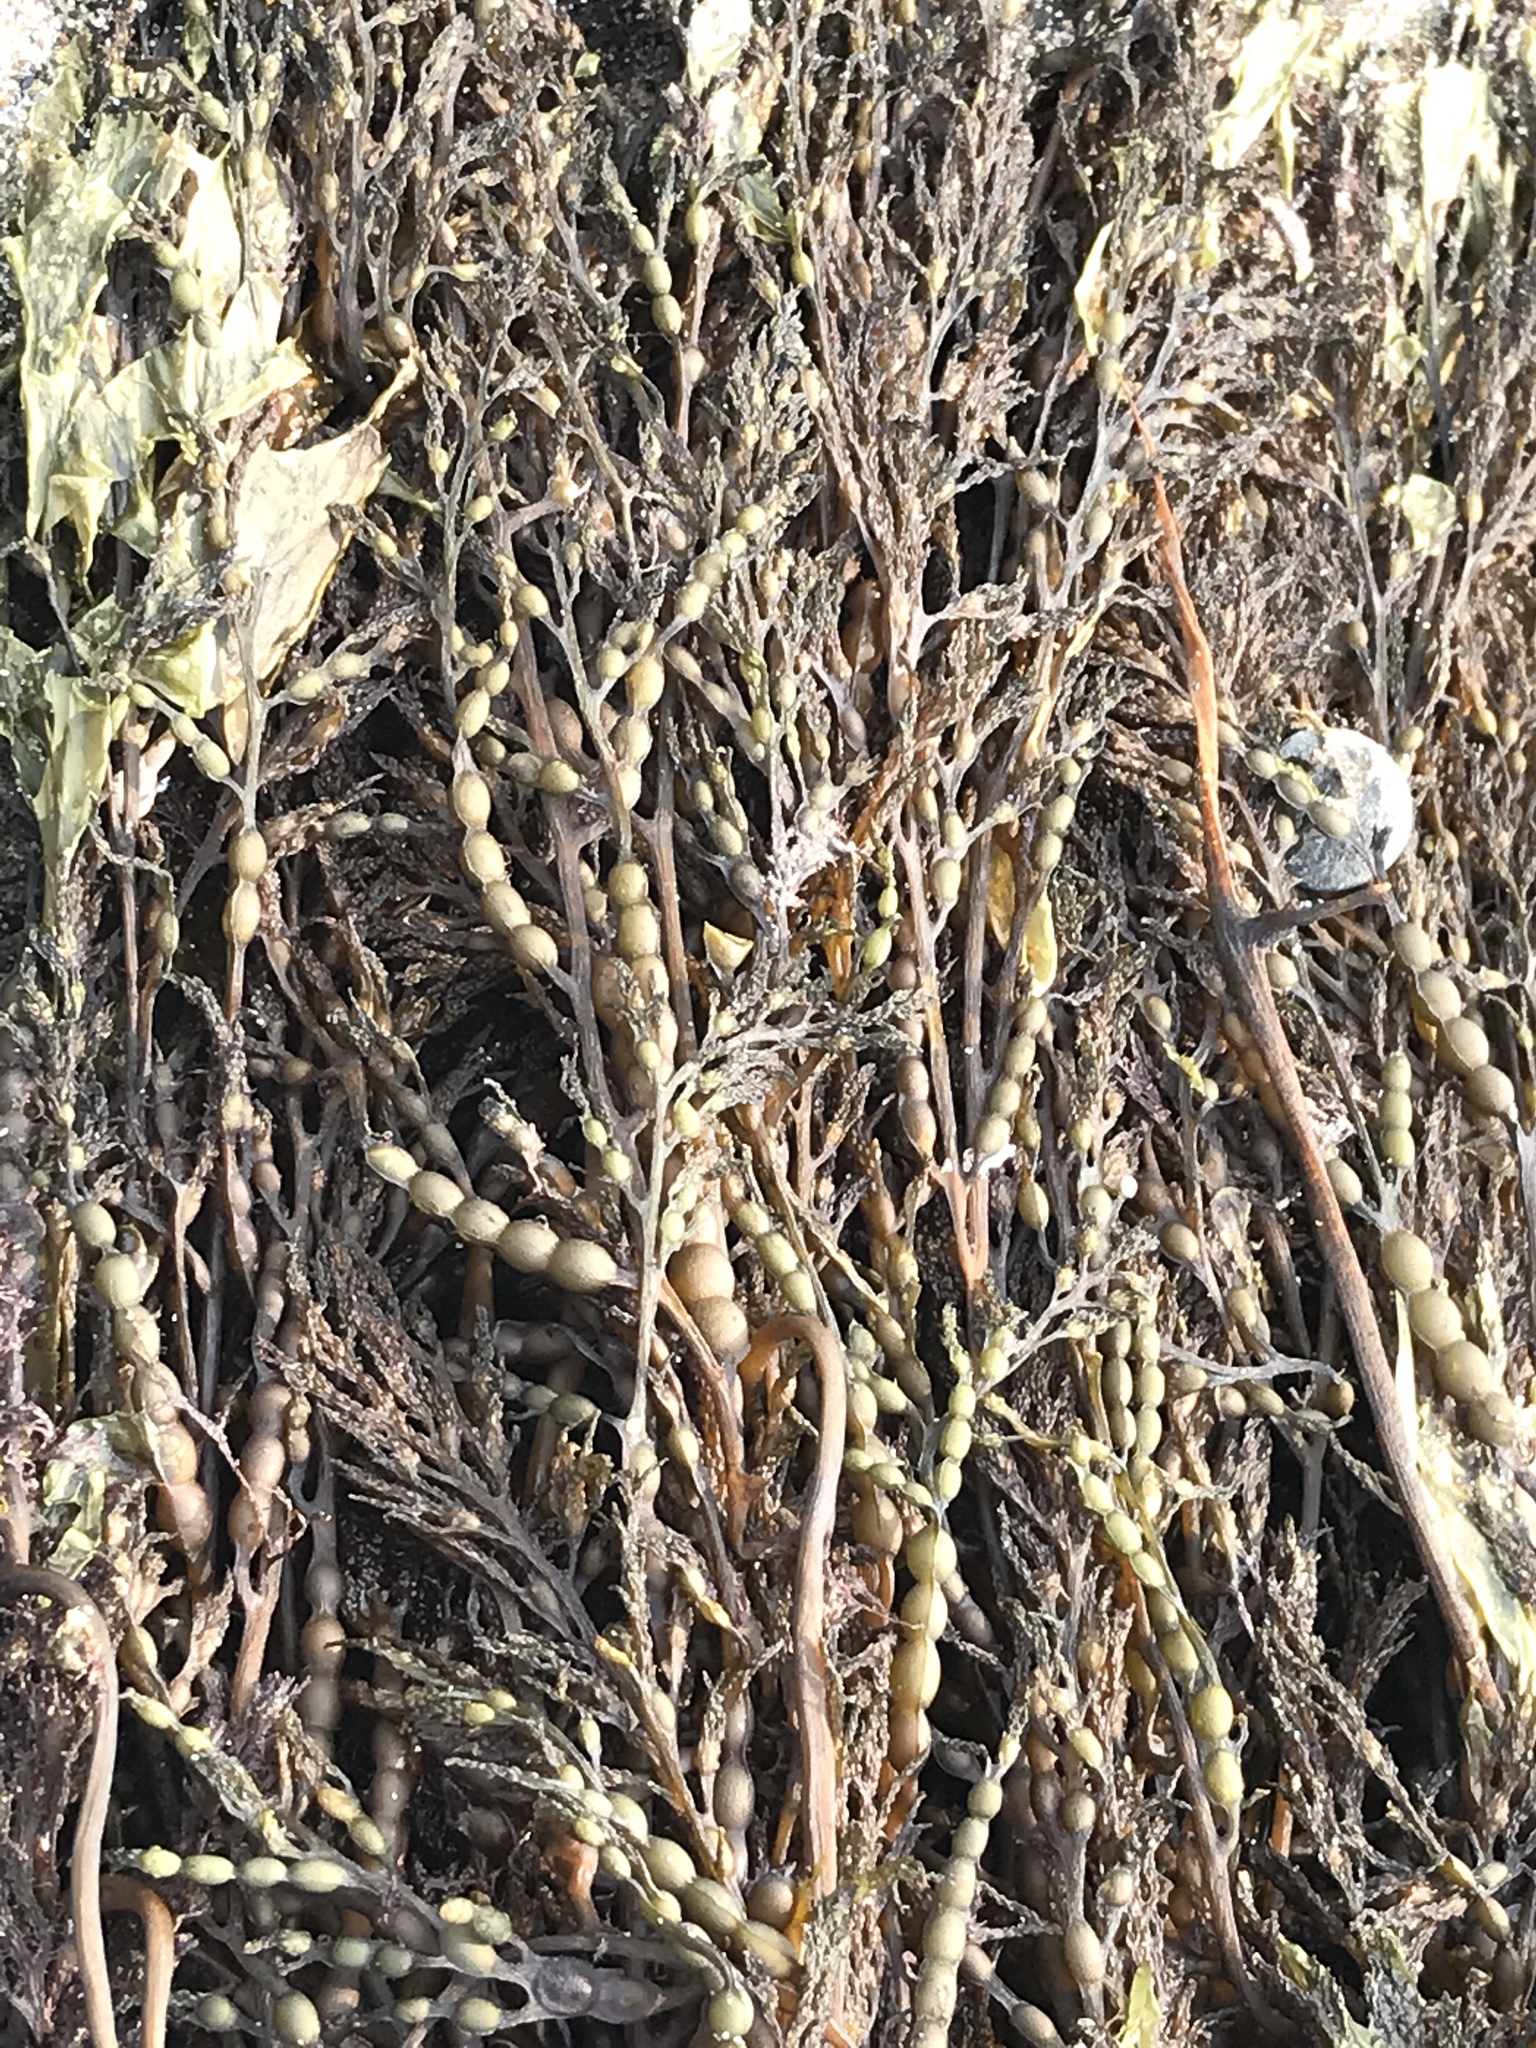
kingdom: Chromista
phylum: Ochrophyta
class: Phaeophyceae
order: Fucales
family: Sargassaceae
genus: Stephanocystis
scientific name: Stephanocystis
